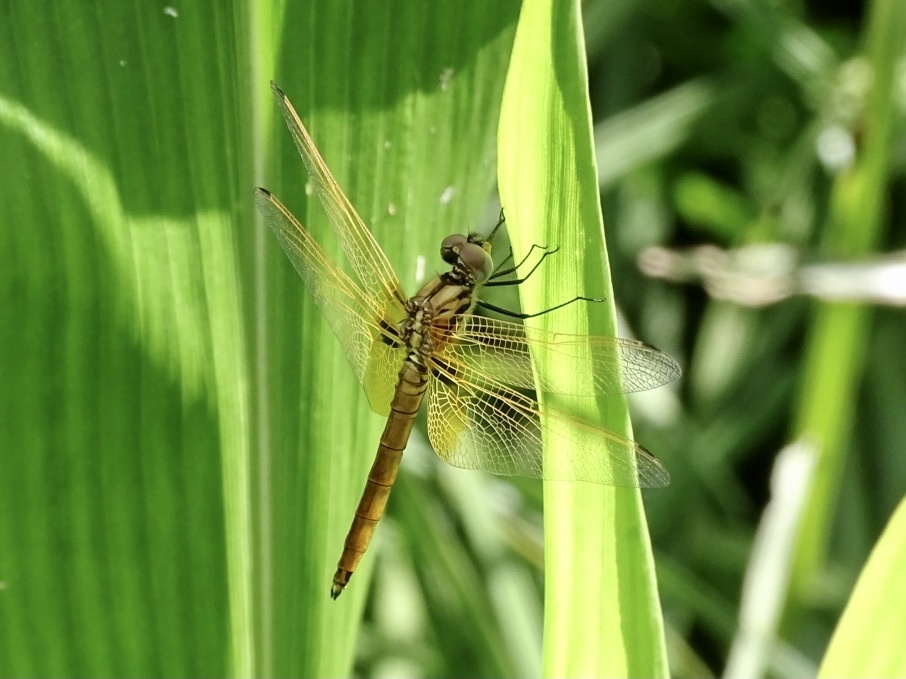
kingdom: Animalia
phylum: Arthropoda
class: Insecta
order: Odonata
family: Libellulidae
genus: Trithemis
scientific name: Trithemis aurora
